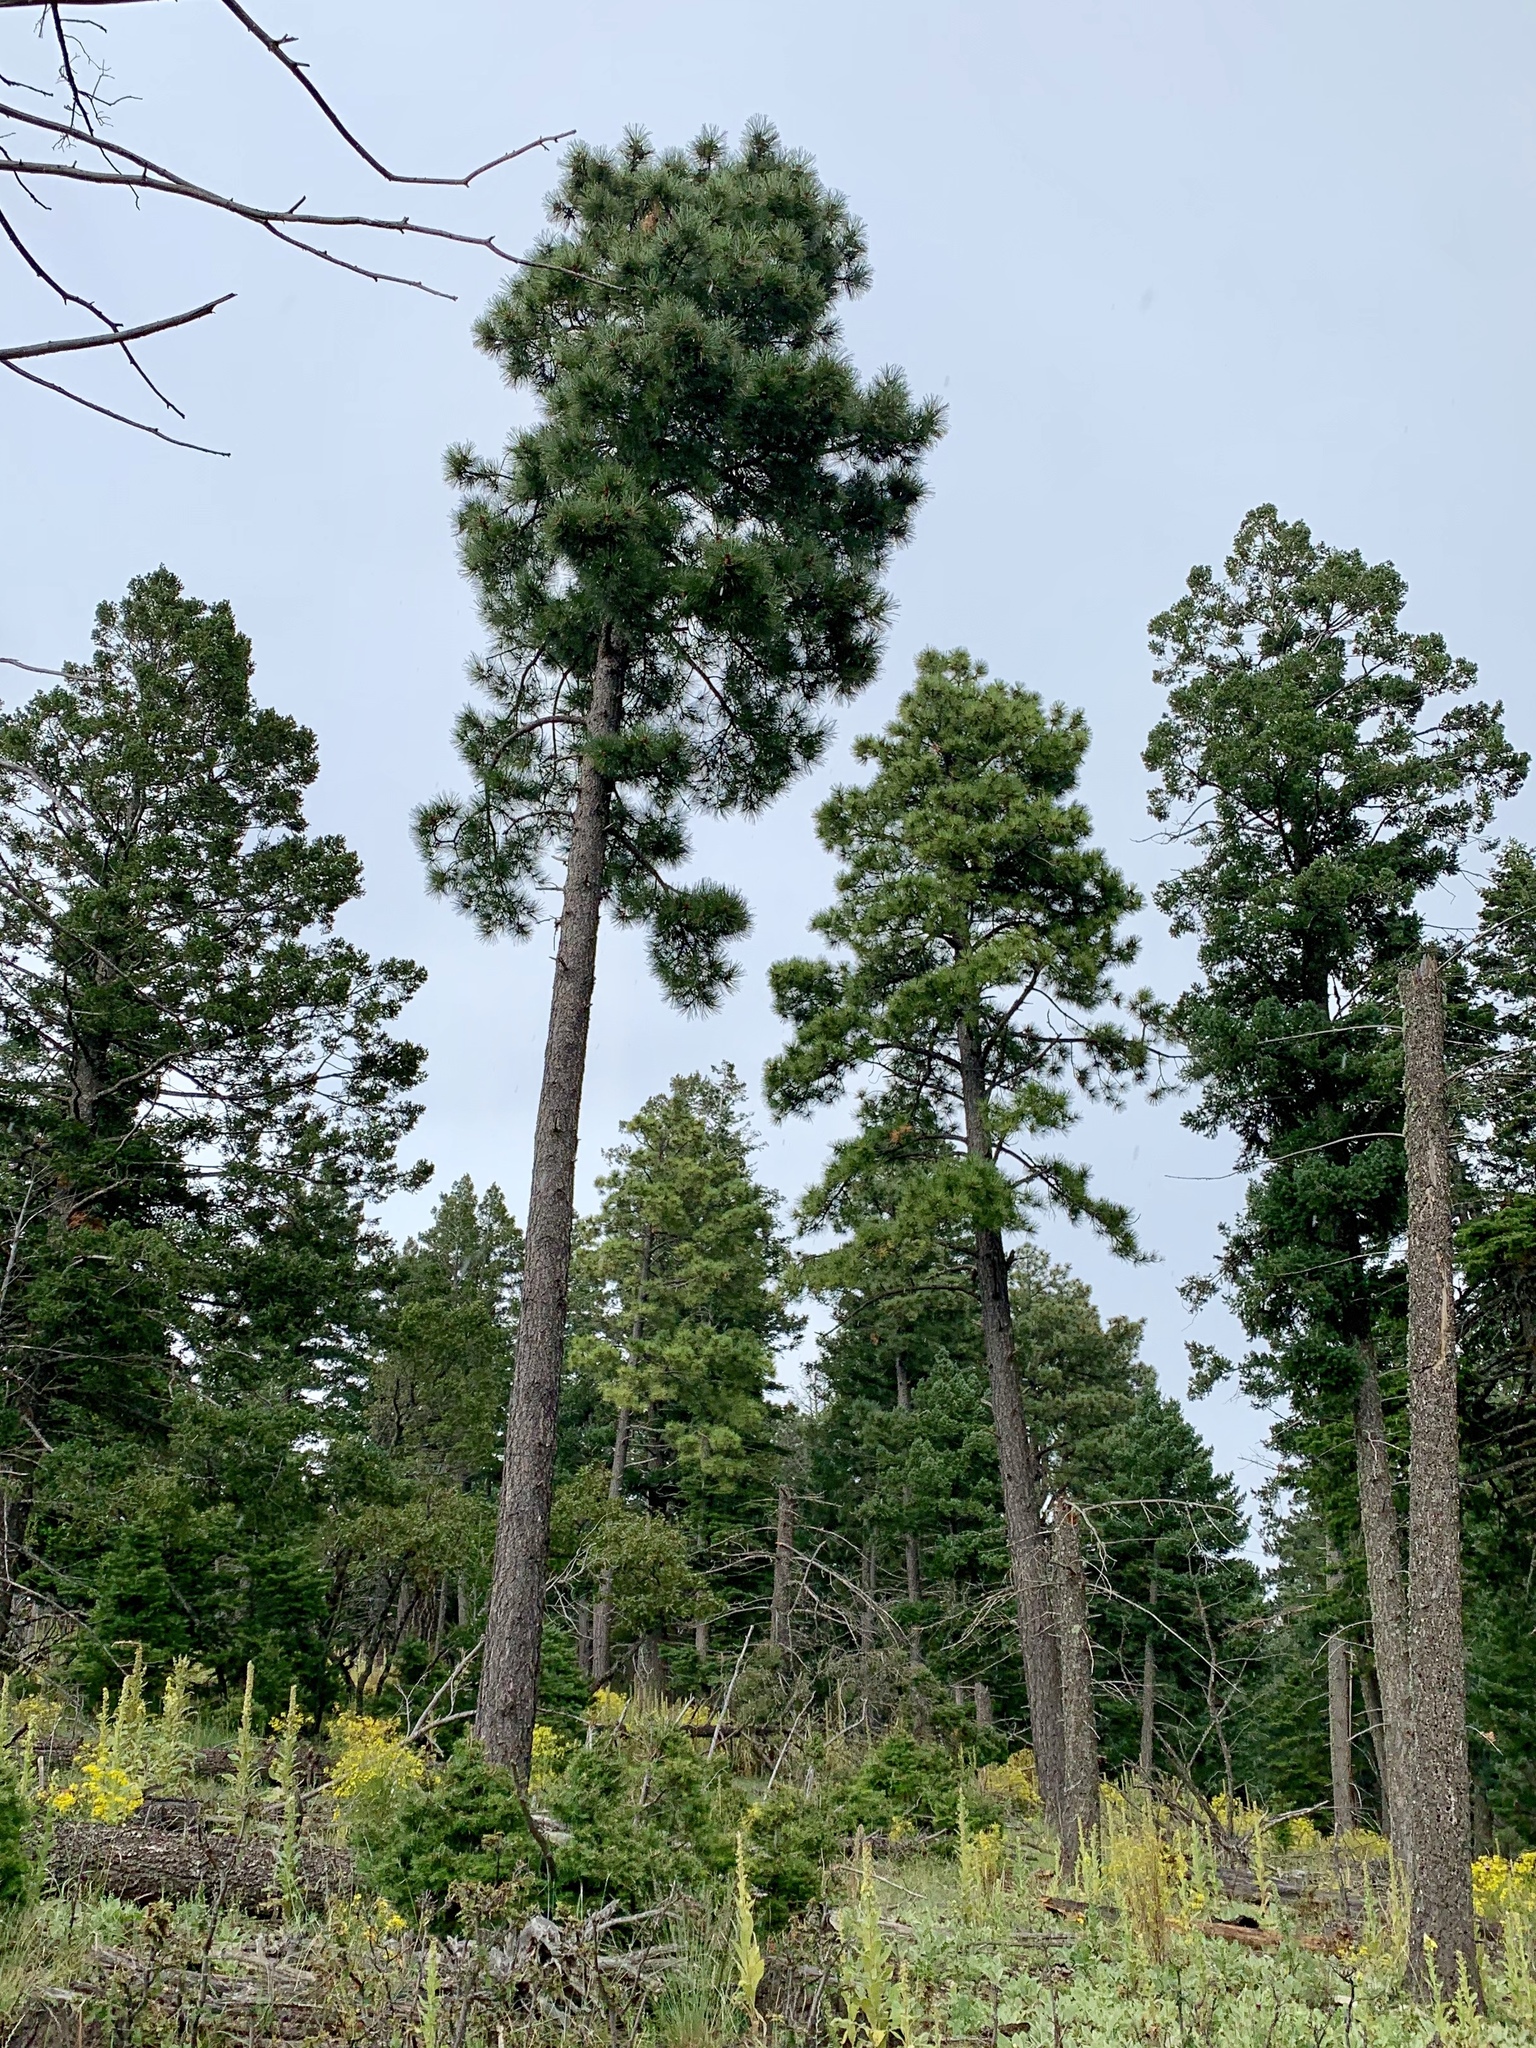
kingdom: Plantae
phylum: Tracheophyta
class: Pinopsida
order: Pinales
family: Pinaceae
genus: Pinus
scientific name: Pinus ponderosa
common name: Western yellow-pine
